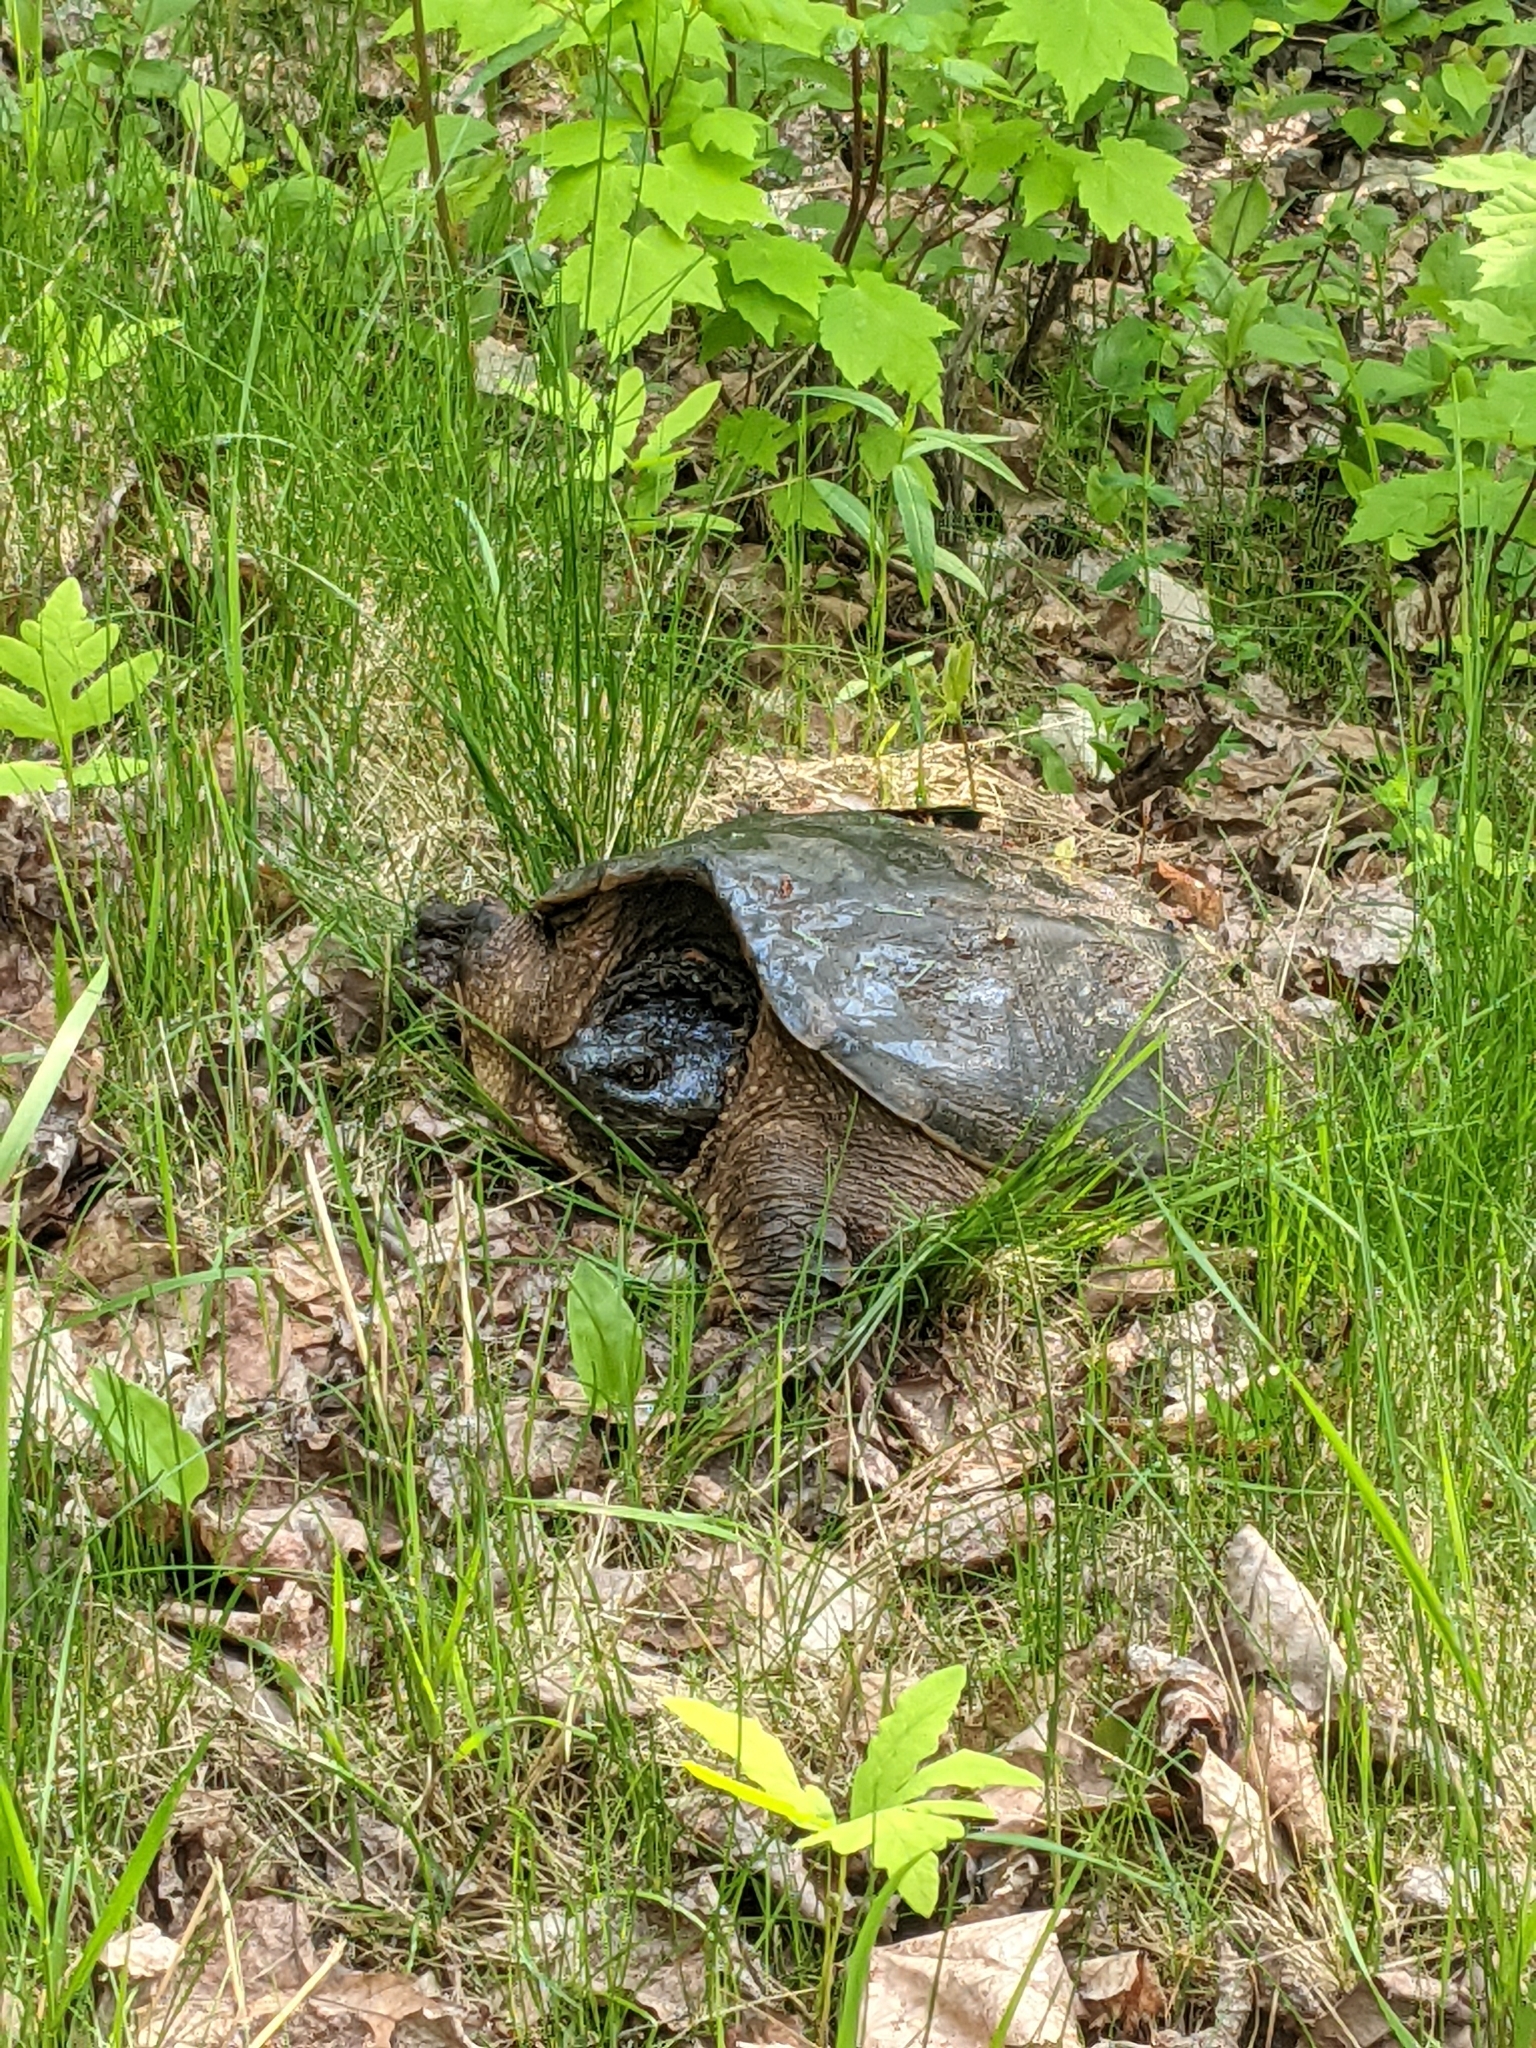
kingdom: Animalia
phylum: Chordata
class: Testudines
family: Chelydridae
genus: Chelydra
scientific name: Chelydra serpentina
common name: Common snapping turtle
